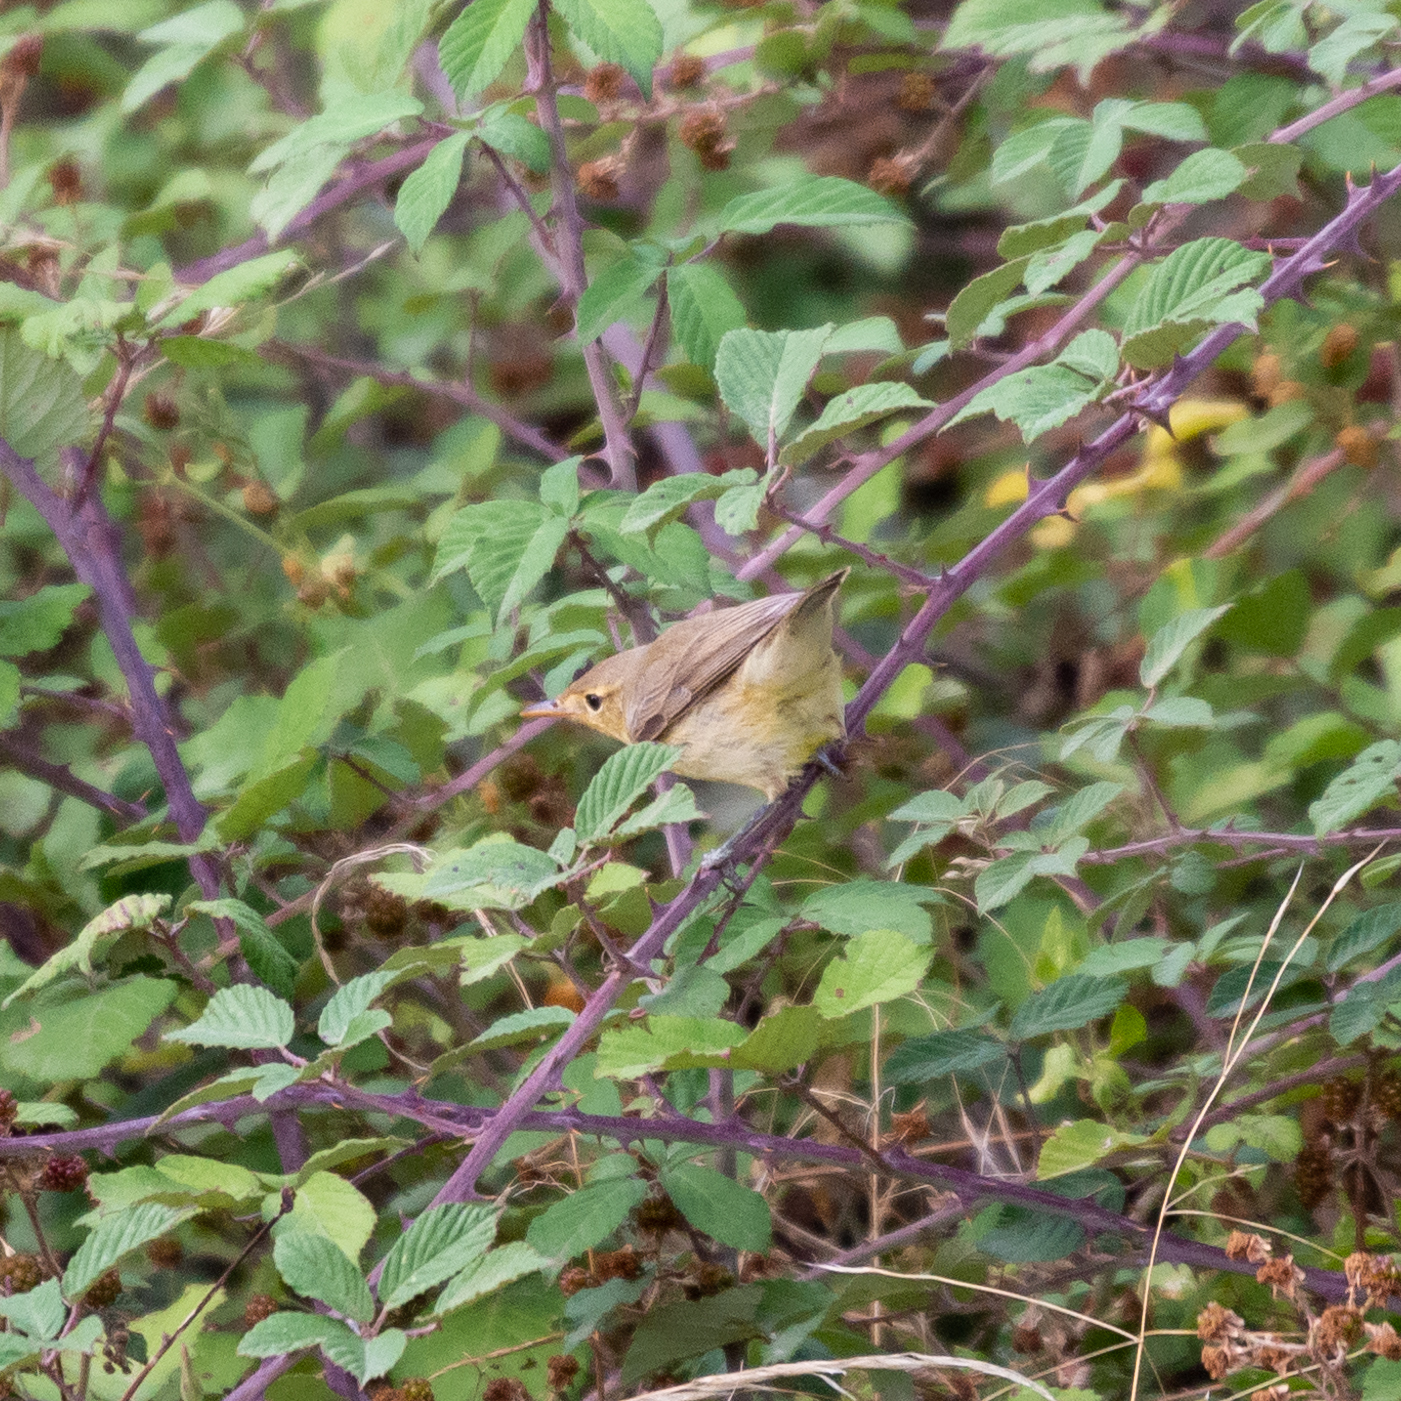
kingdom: Animalia
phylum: Chordata
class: Aves
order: Passeriformes
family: Acrocephalidae
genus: Hippolais
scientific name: Hippolais polyglotta
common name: Melodious warbler
